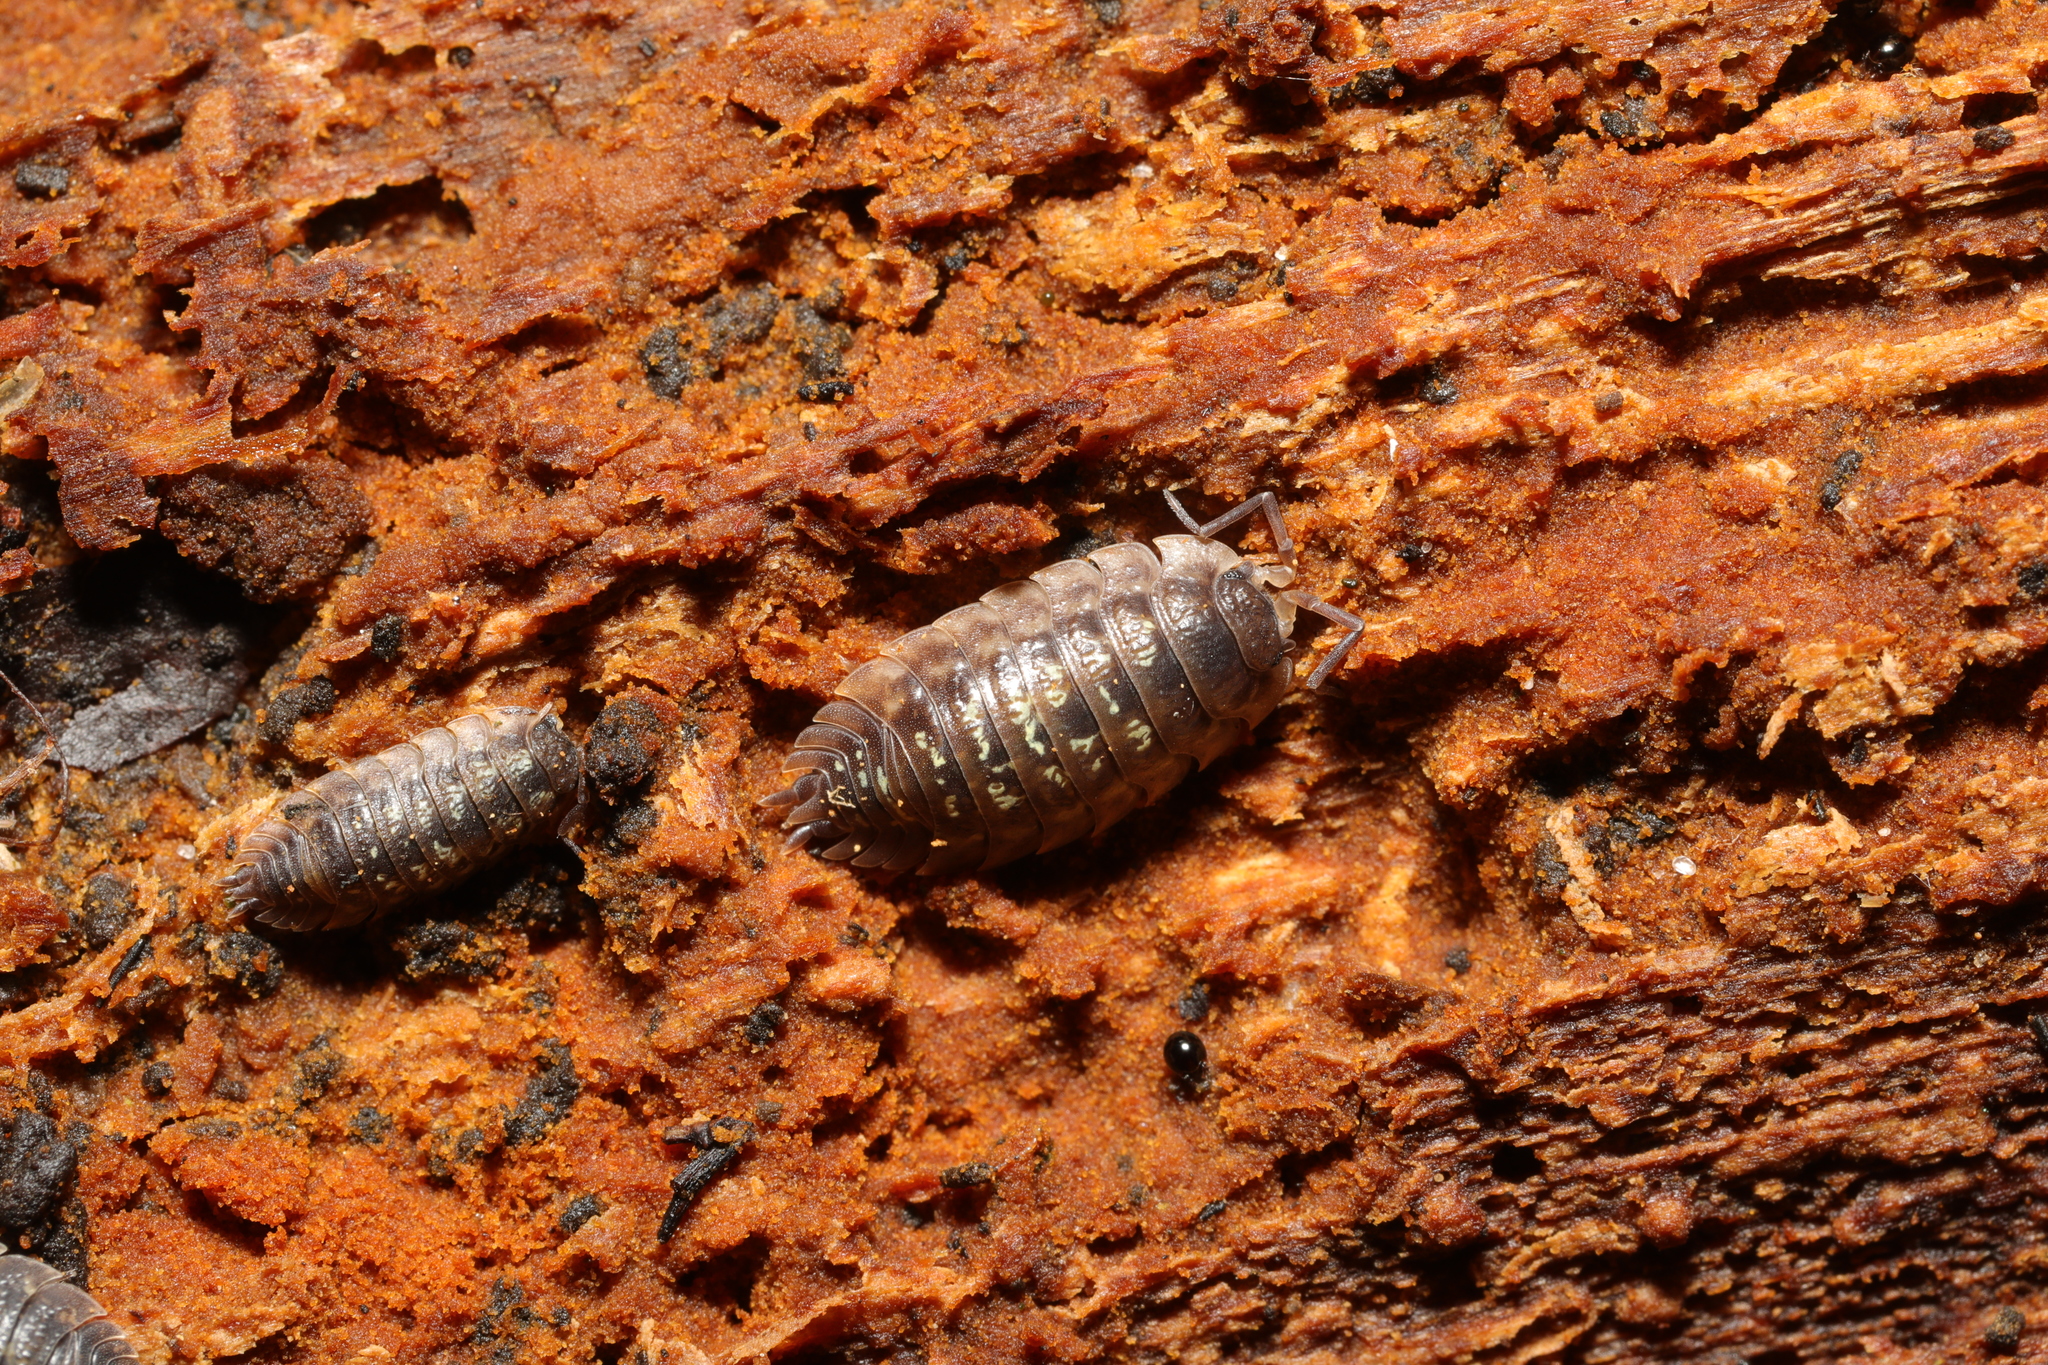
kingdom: Animalia
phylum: Arthropoda
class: Malacostraca
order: Isopoda
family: Oniscidae
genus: Oniscus
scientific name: Oniscus asellus
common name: Common shiny woodlouse
